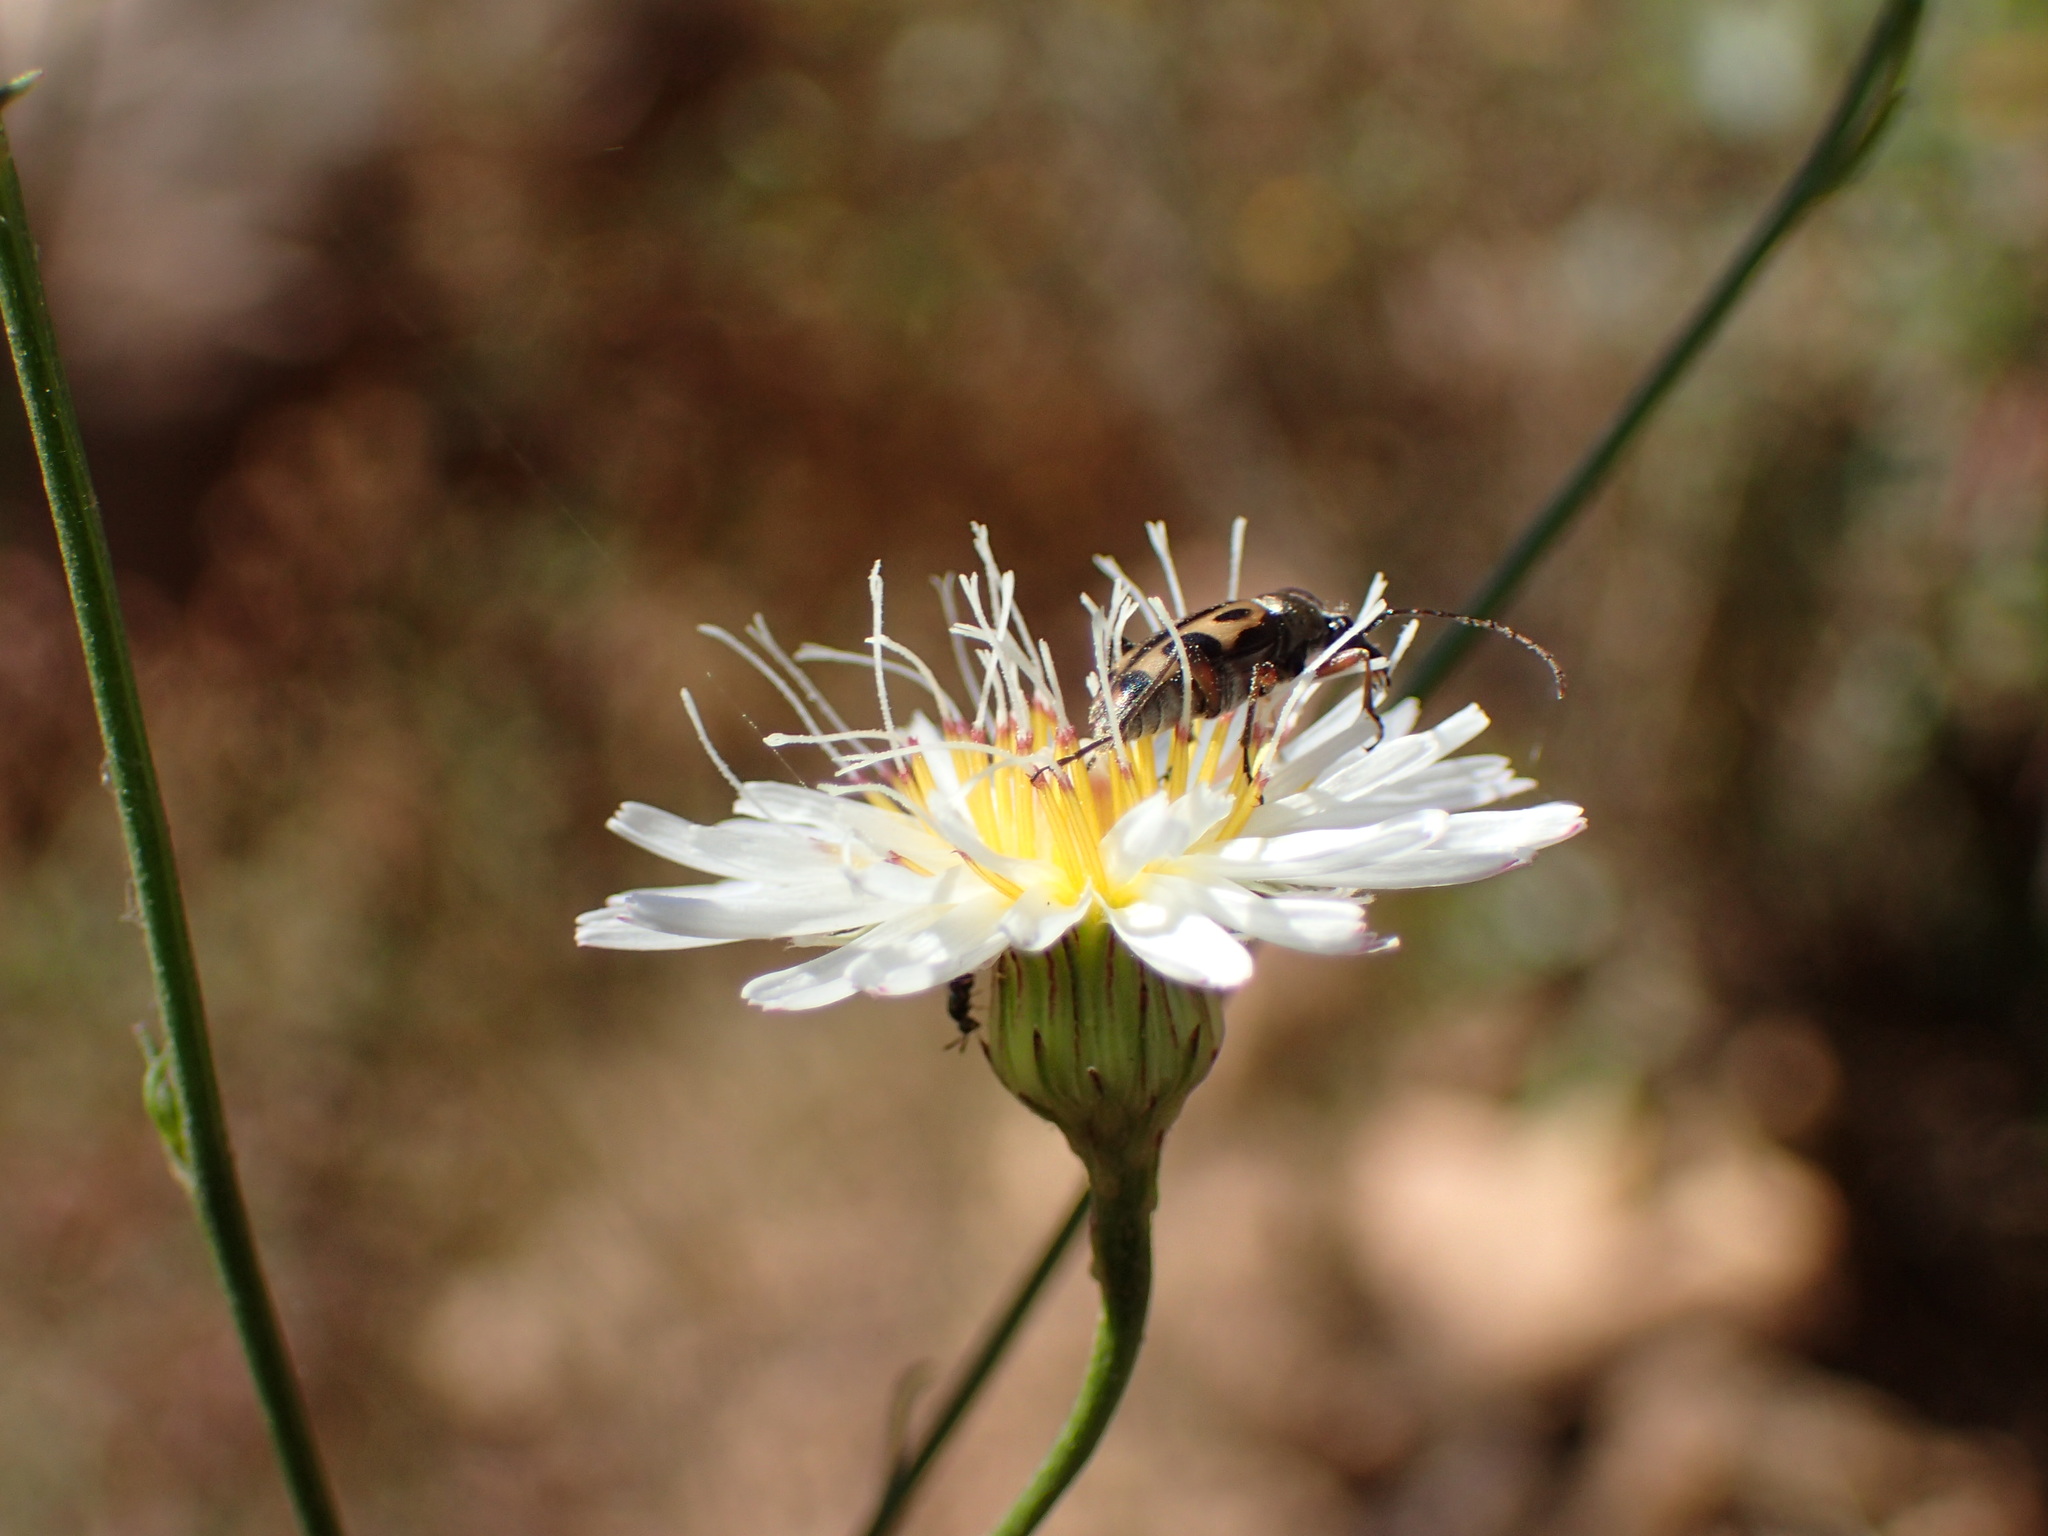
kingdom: Animalia
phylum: Arthropoda
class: Insecta
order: Coleoptera
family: Cerambycidae
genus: Judolia
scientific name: Judolia sexspilota
